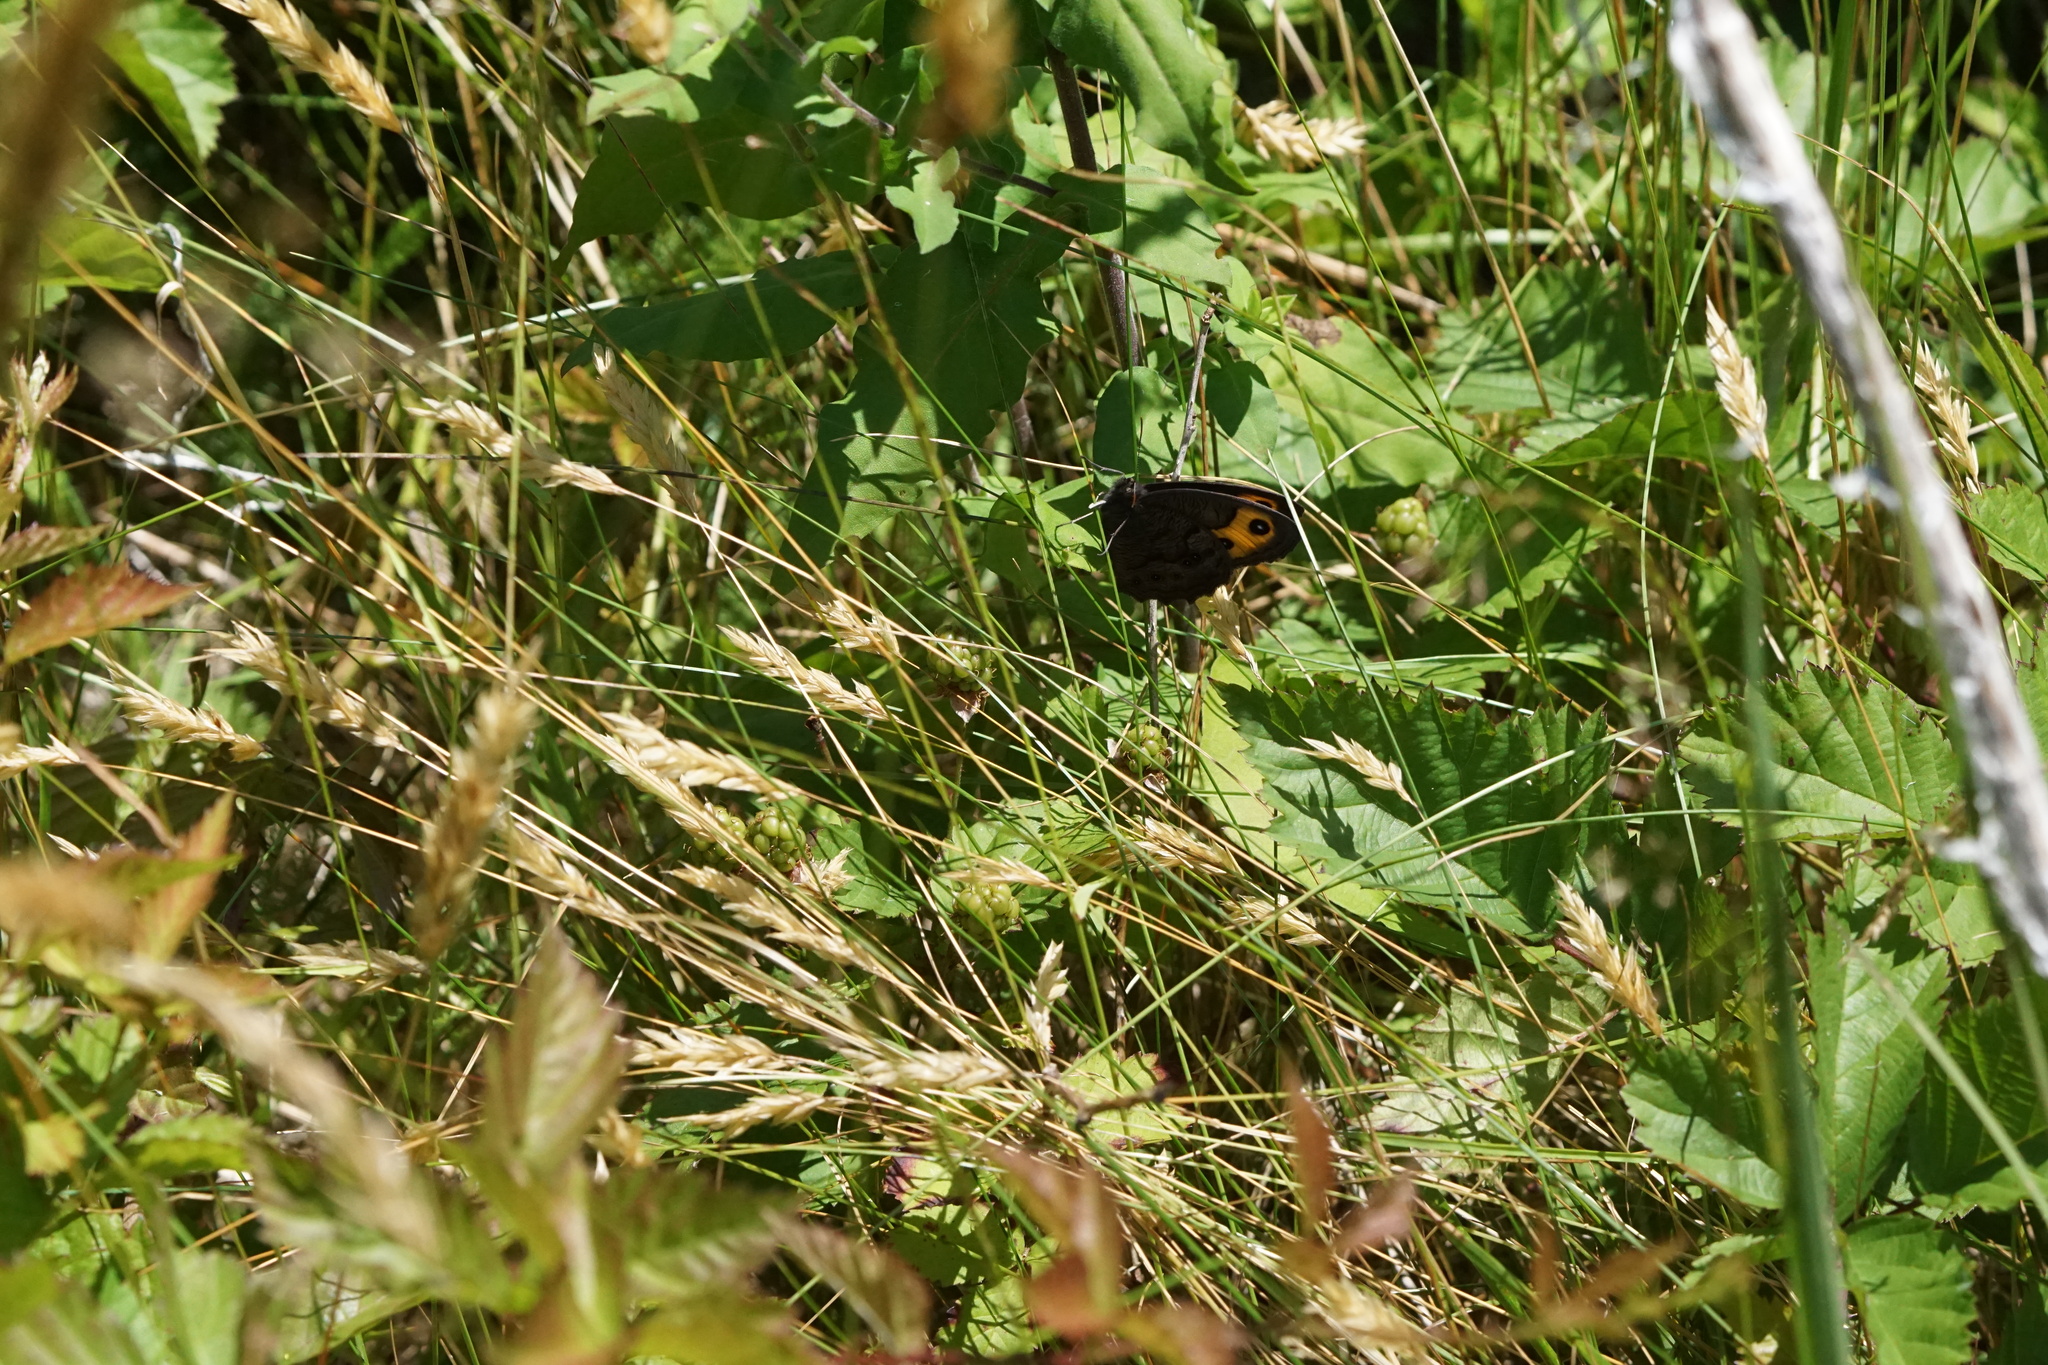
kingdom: Animalia
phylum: Arthropoda
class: Insecta
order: Lepidoptera
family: Nymphalidae
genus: Cercyonis
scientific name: Cercyonis pegala
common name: Common wood-nymph
